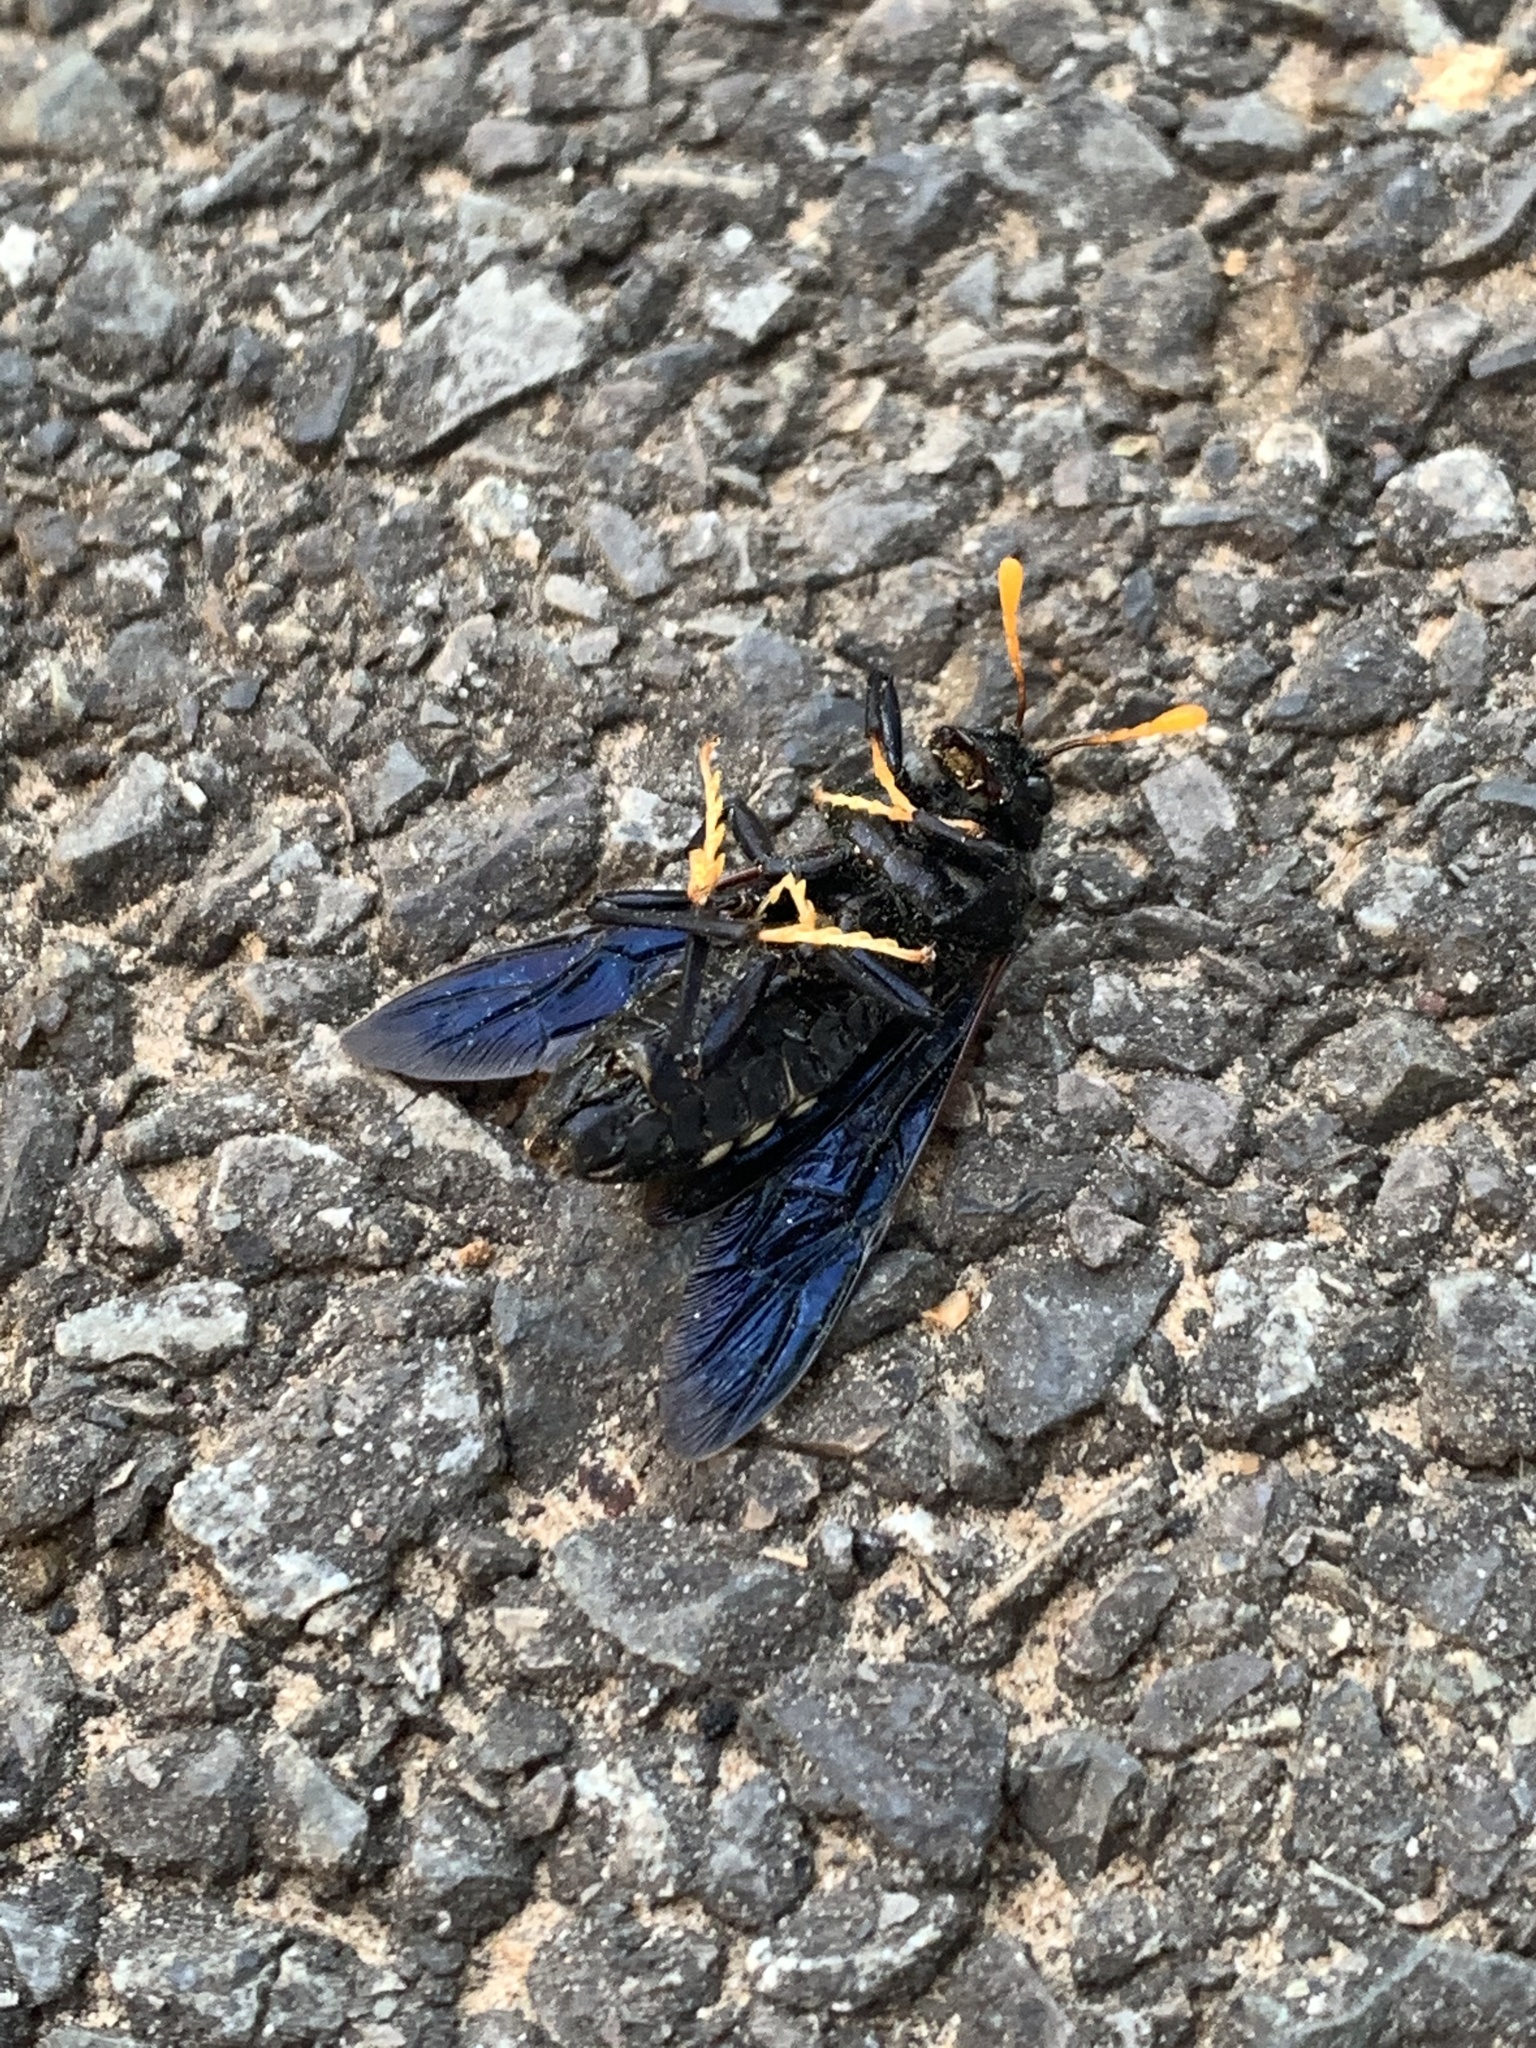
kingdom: Animalia
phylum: Arthropoda
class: Insecta
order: Hymenoptera
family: Cimbicidae
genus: Cimbex
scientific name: Cimbex americana
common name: Elm sawfly
